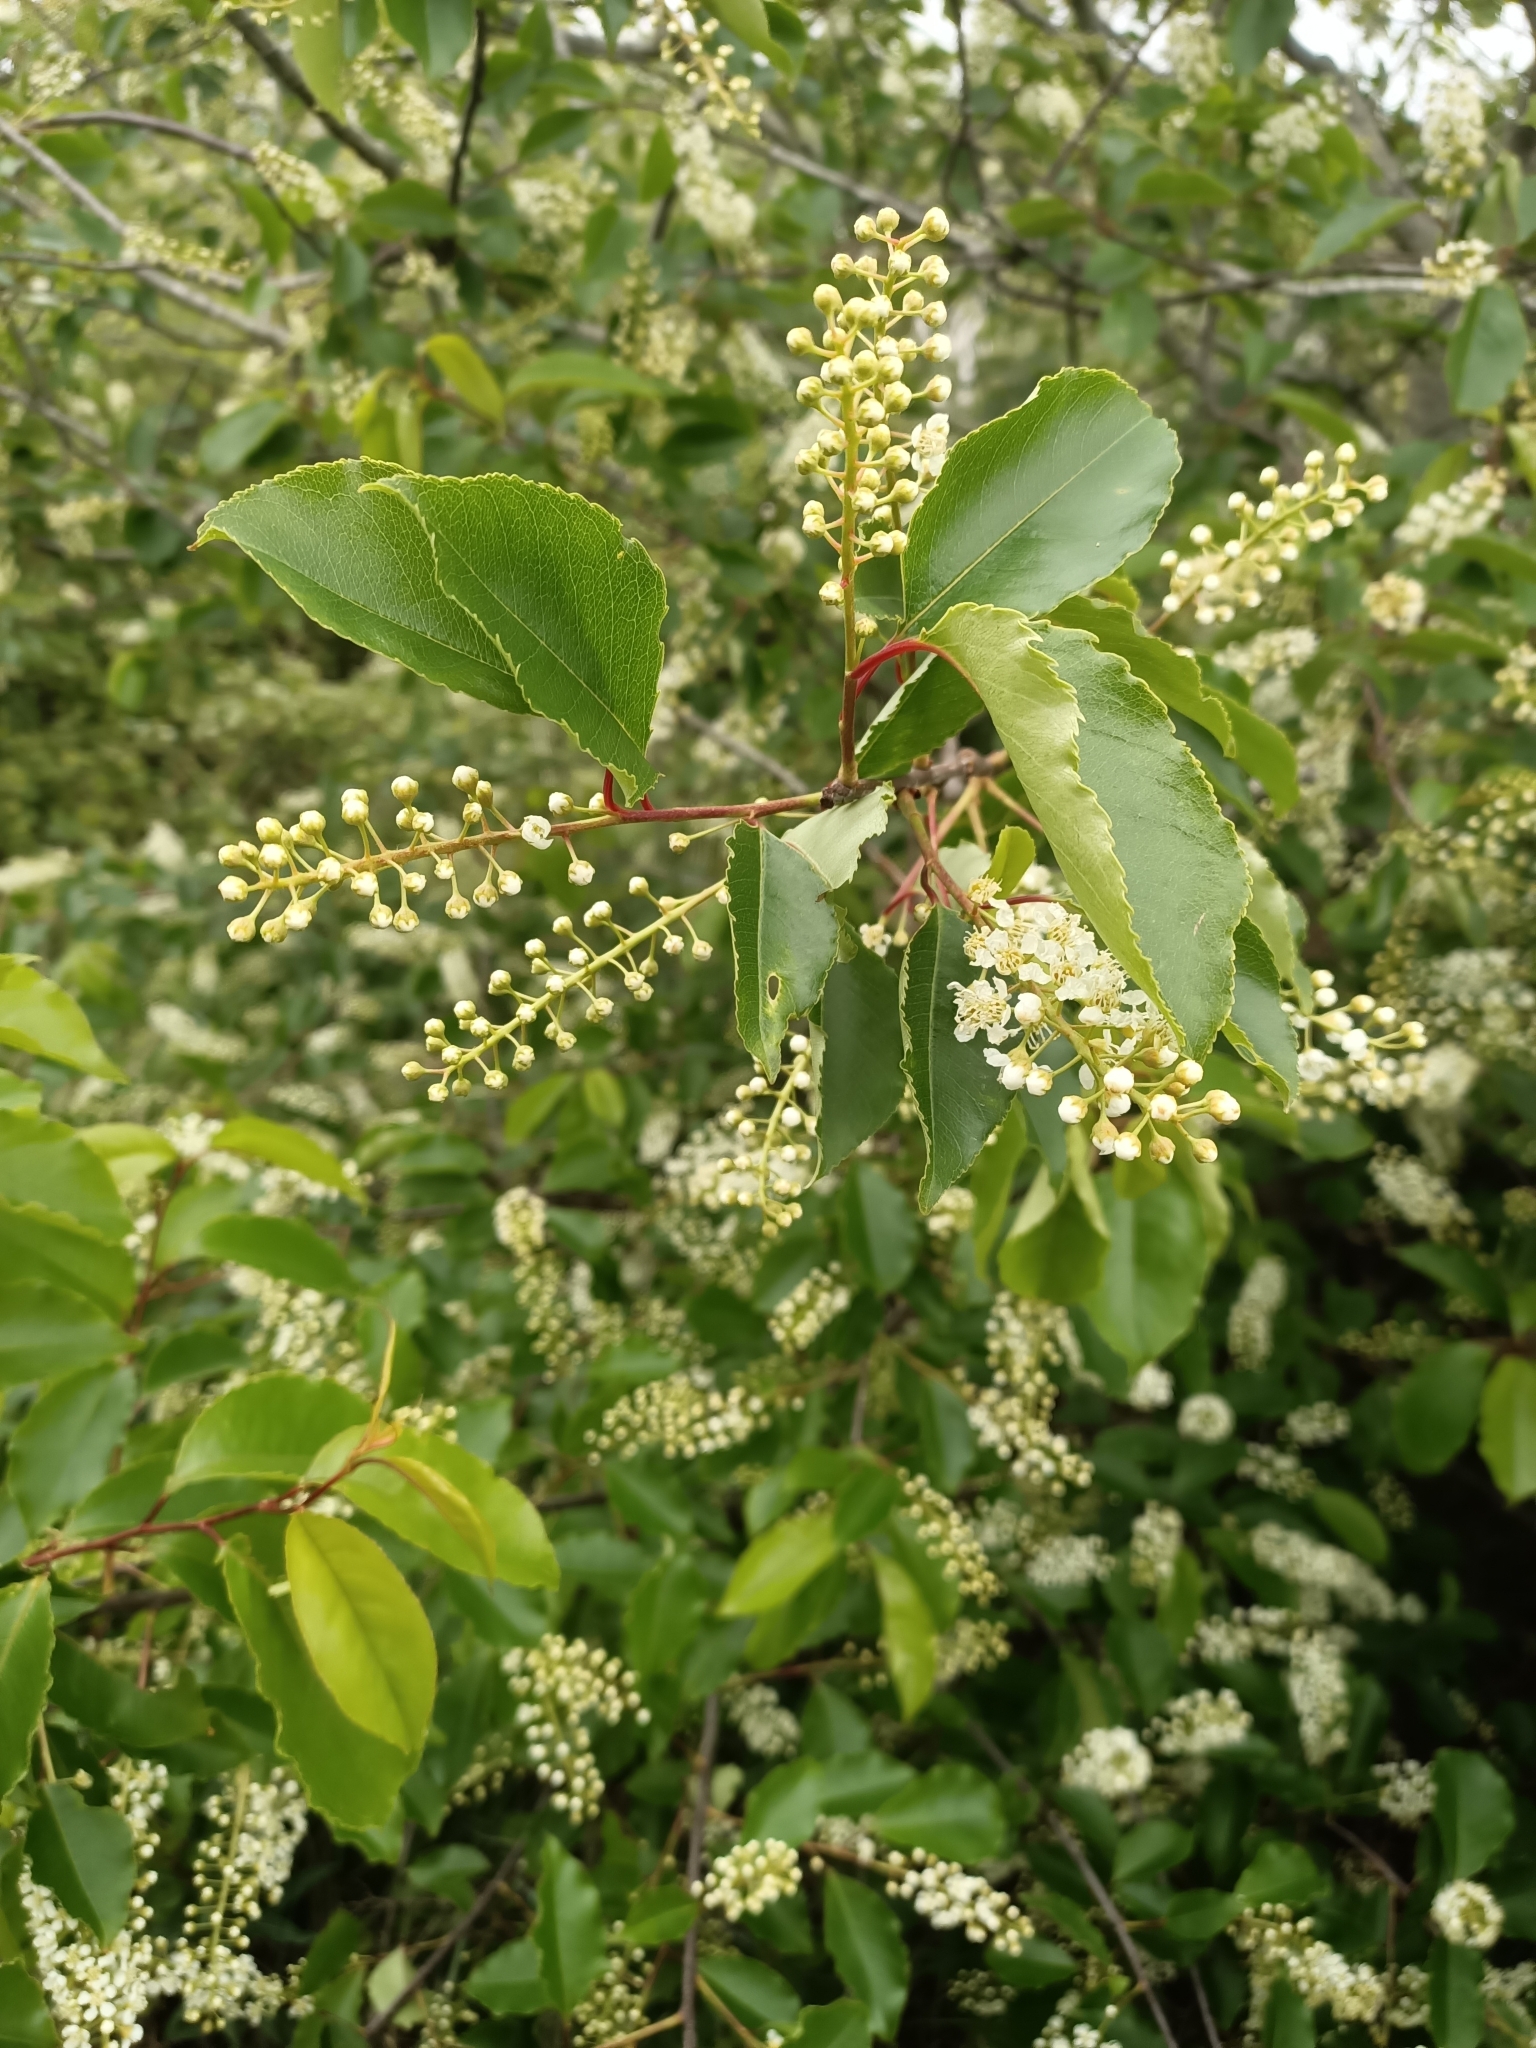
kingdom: Plantae
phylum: Tracheophyta
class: Magnoliopsida
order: Rosales
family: Rosaceae
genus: Prunus
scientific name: Prunus serotina
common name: Black cherry
